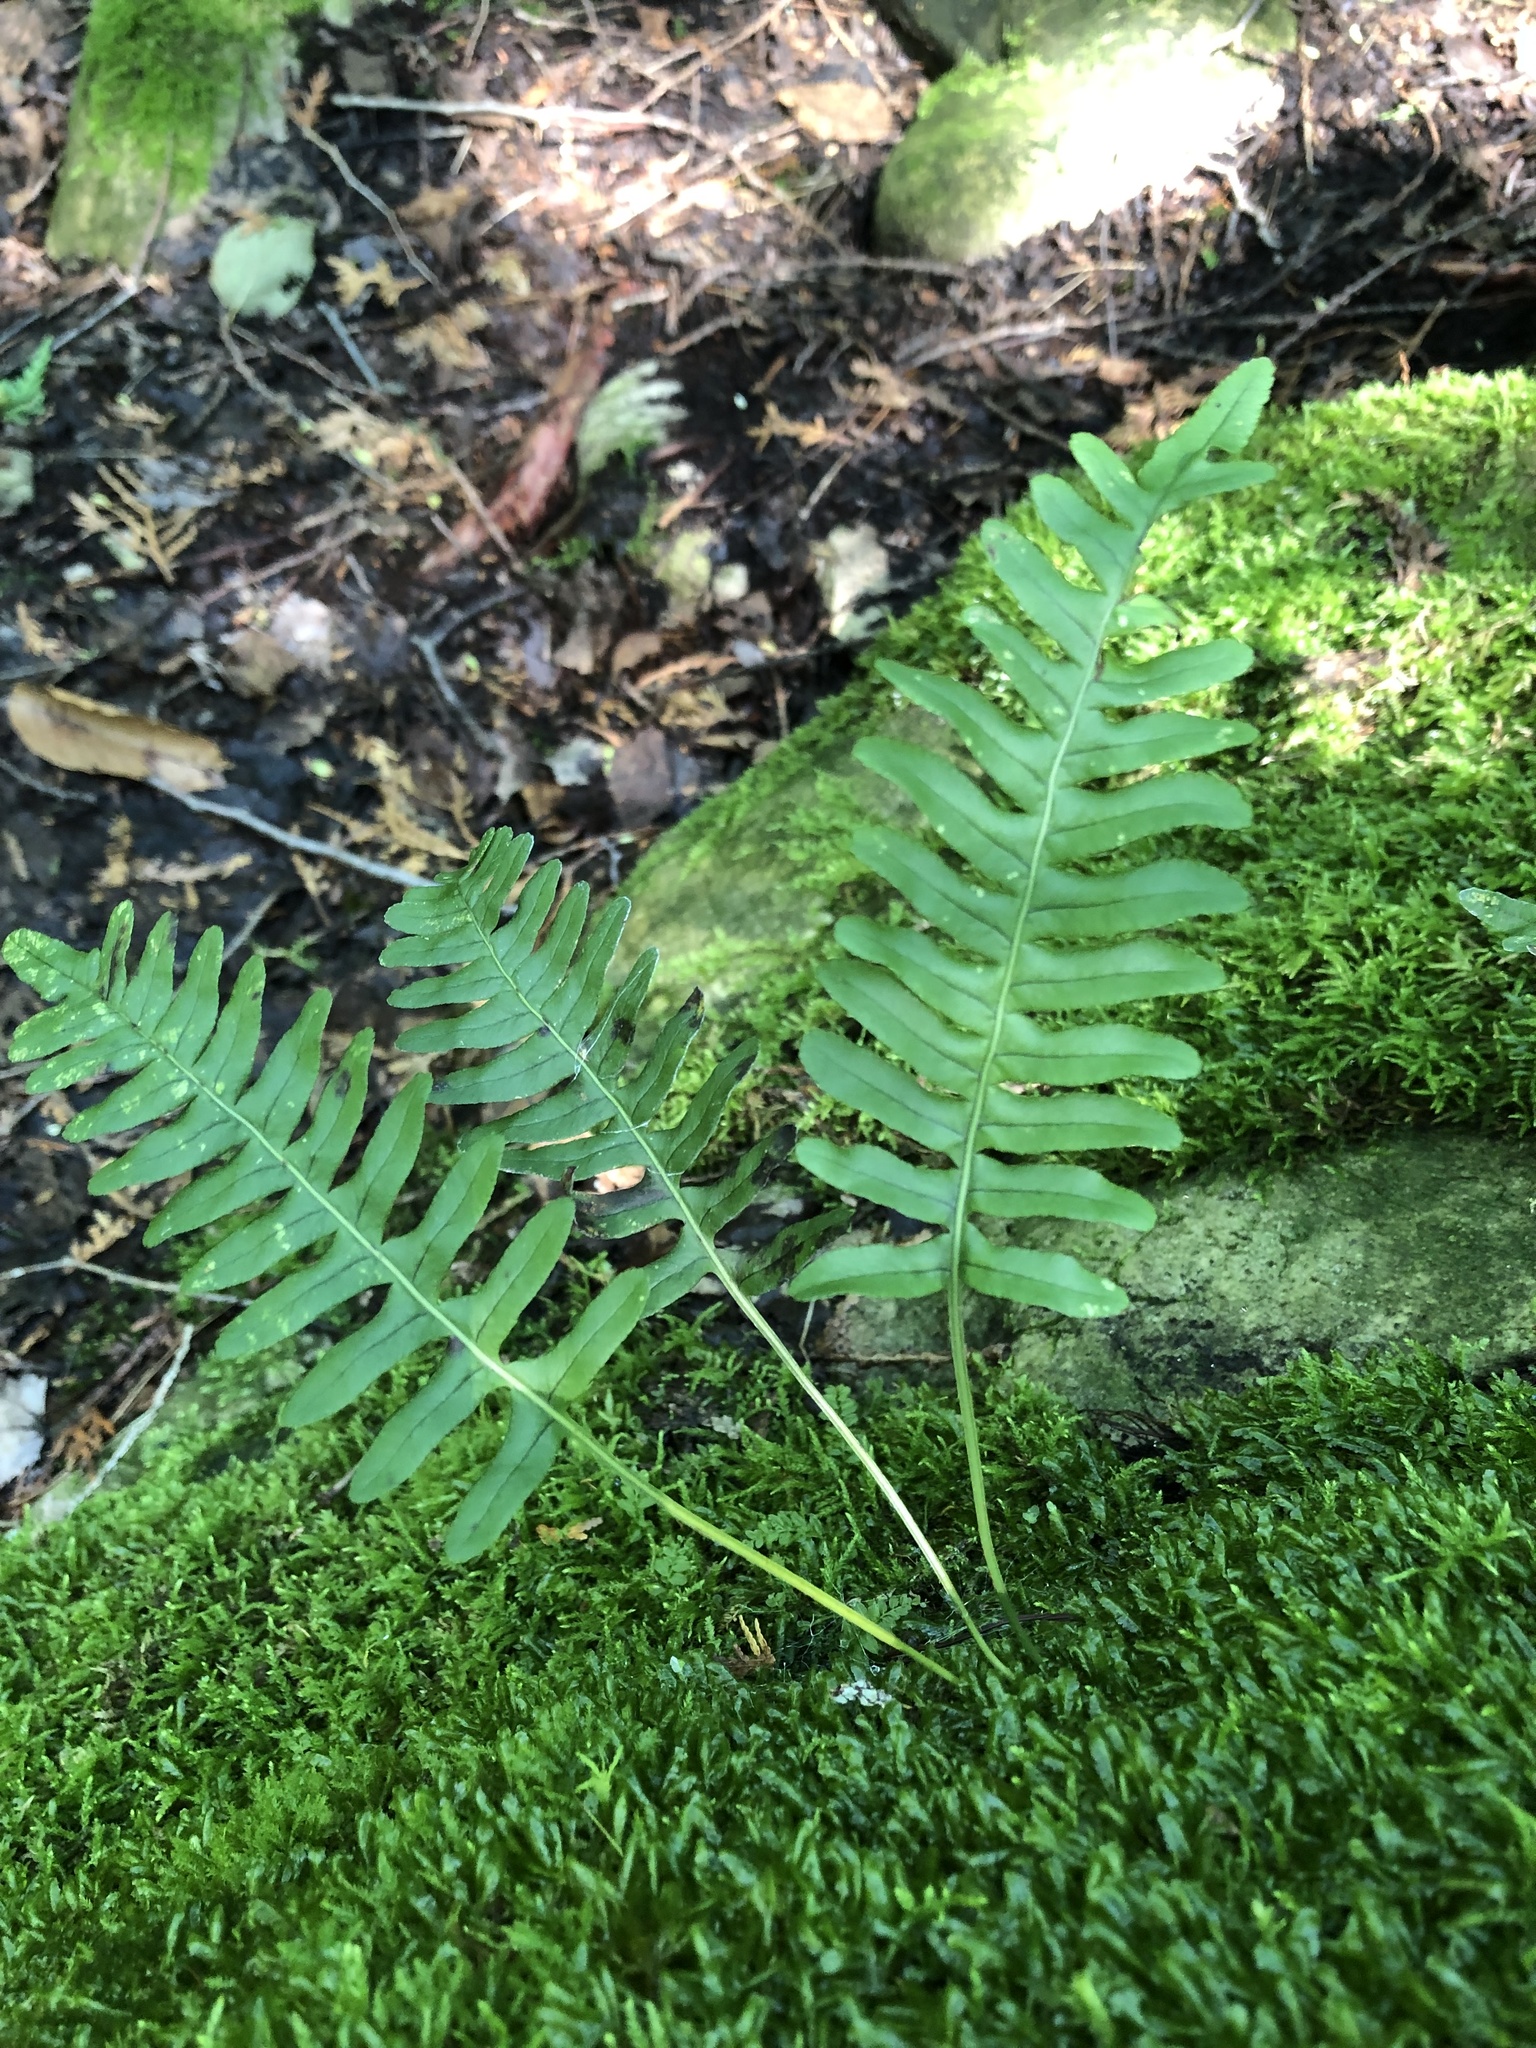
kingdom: Plantae
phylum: Tracheophyta
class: Polypodiopsida
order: Polypodiales
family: Polypodiaceae
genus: Polypodium
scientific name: Polypodium virginianum
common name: American wall fern
